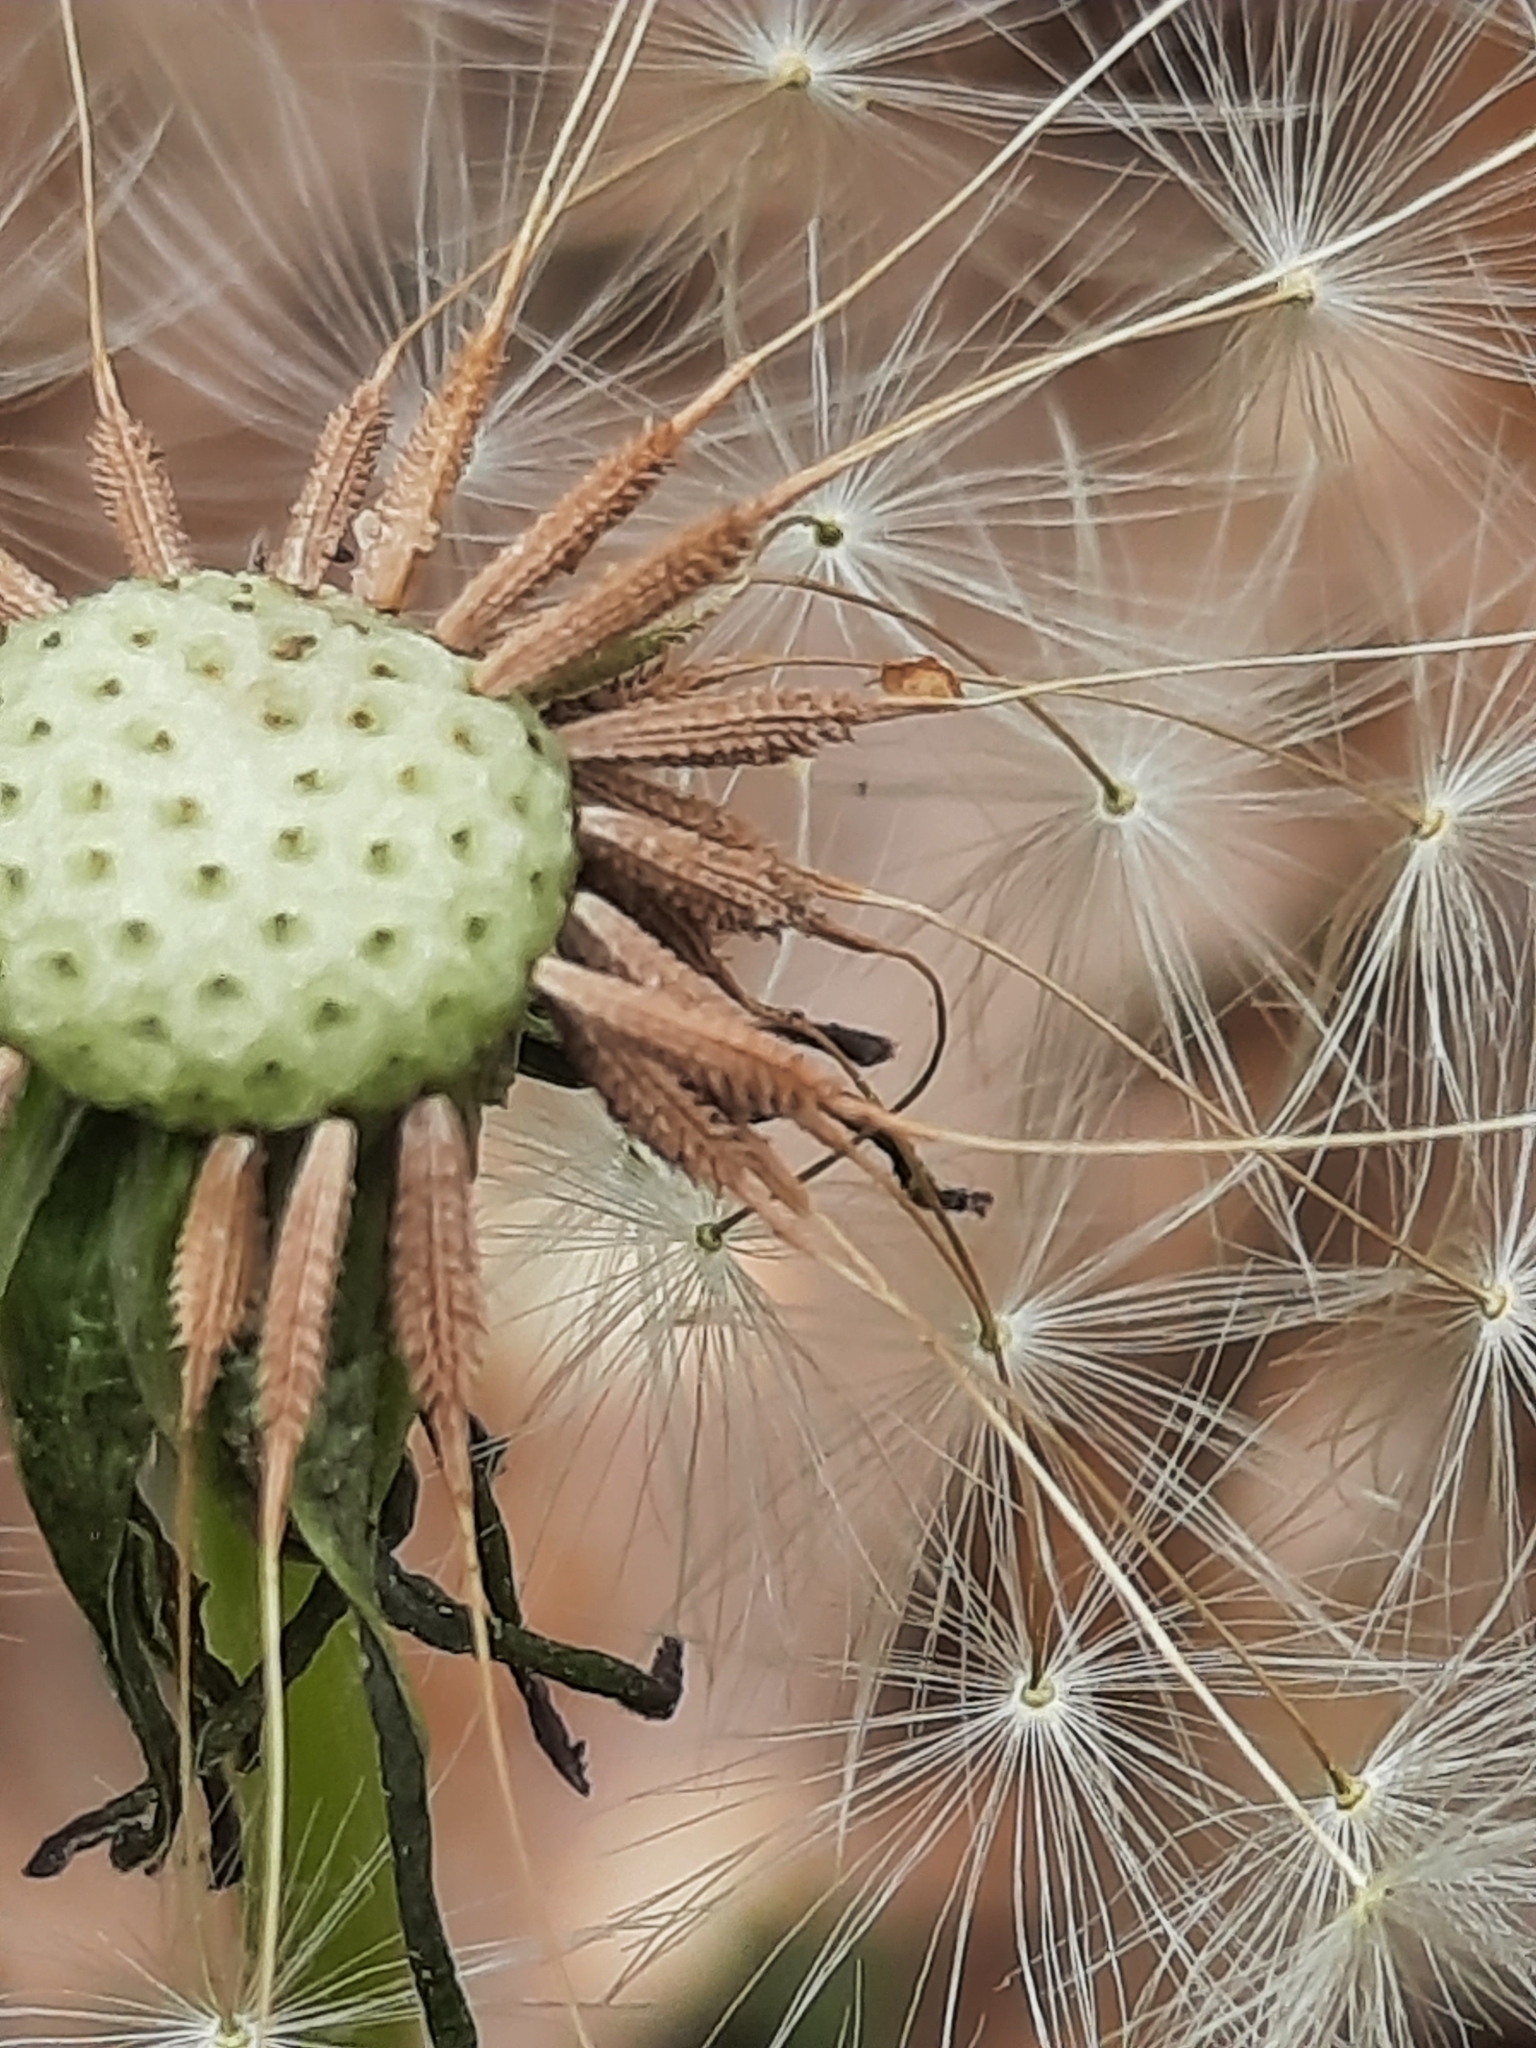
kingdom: Plantae
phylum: Tracheophyta
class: Magnoliopsida
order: Asterales
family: Asteraceae
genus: Taraxacum
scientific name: Taraxacum officinale
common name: Common dandelion
